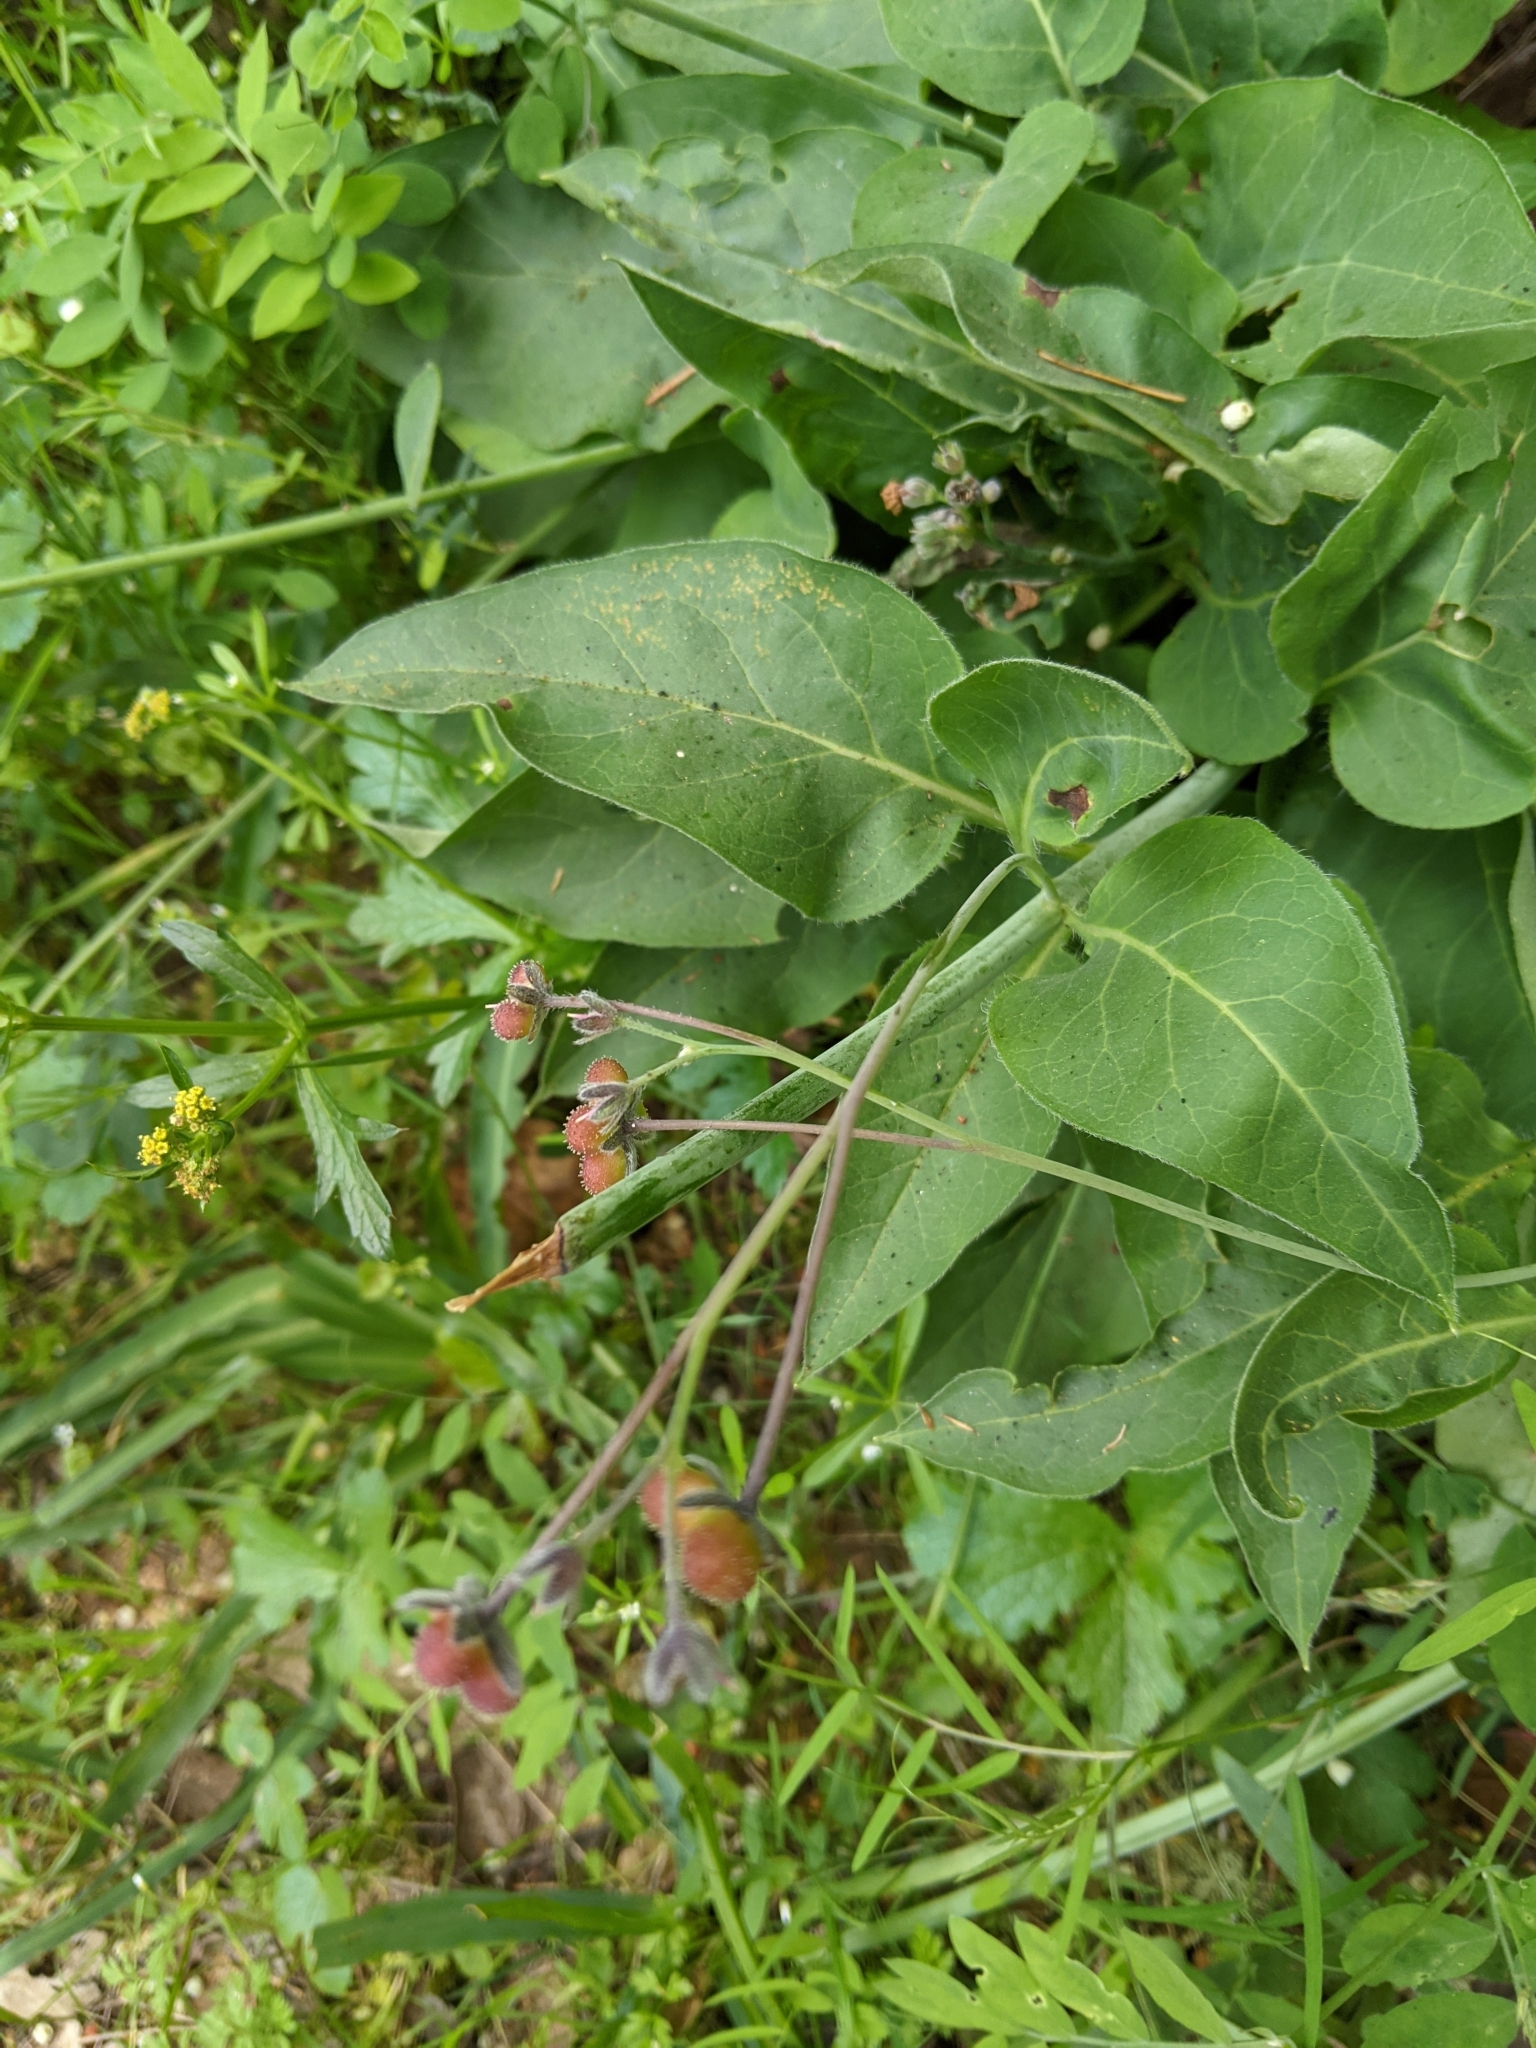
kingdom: Plantae
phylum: Tracheophyta
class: Magnoliopsida
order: Boraginales
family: Boraginaceae
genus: Adelinia
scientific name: Adelinia grande
